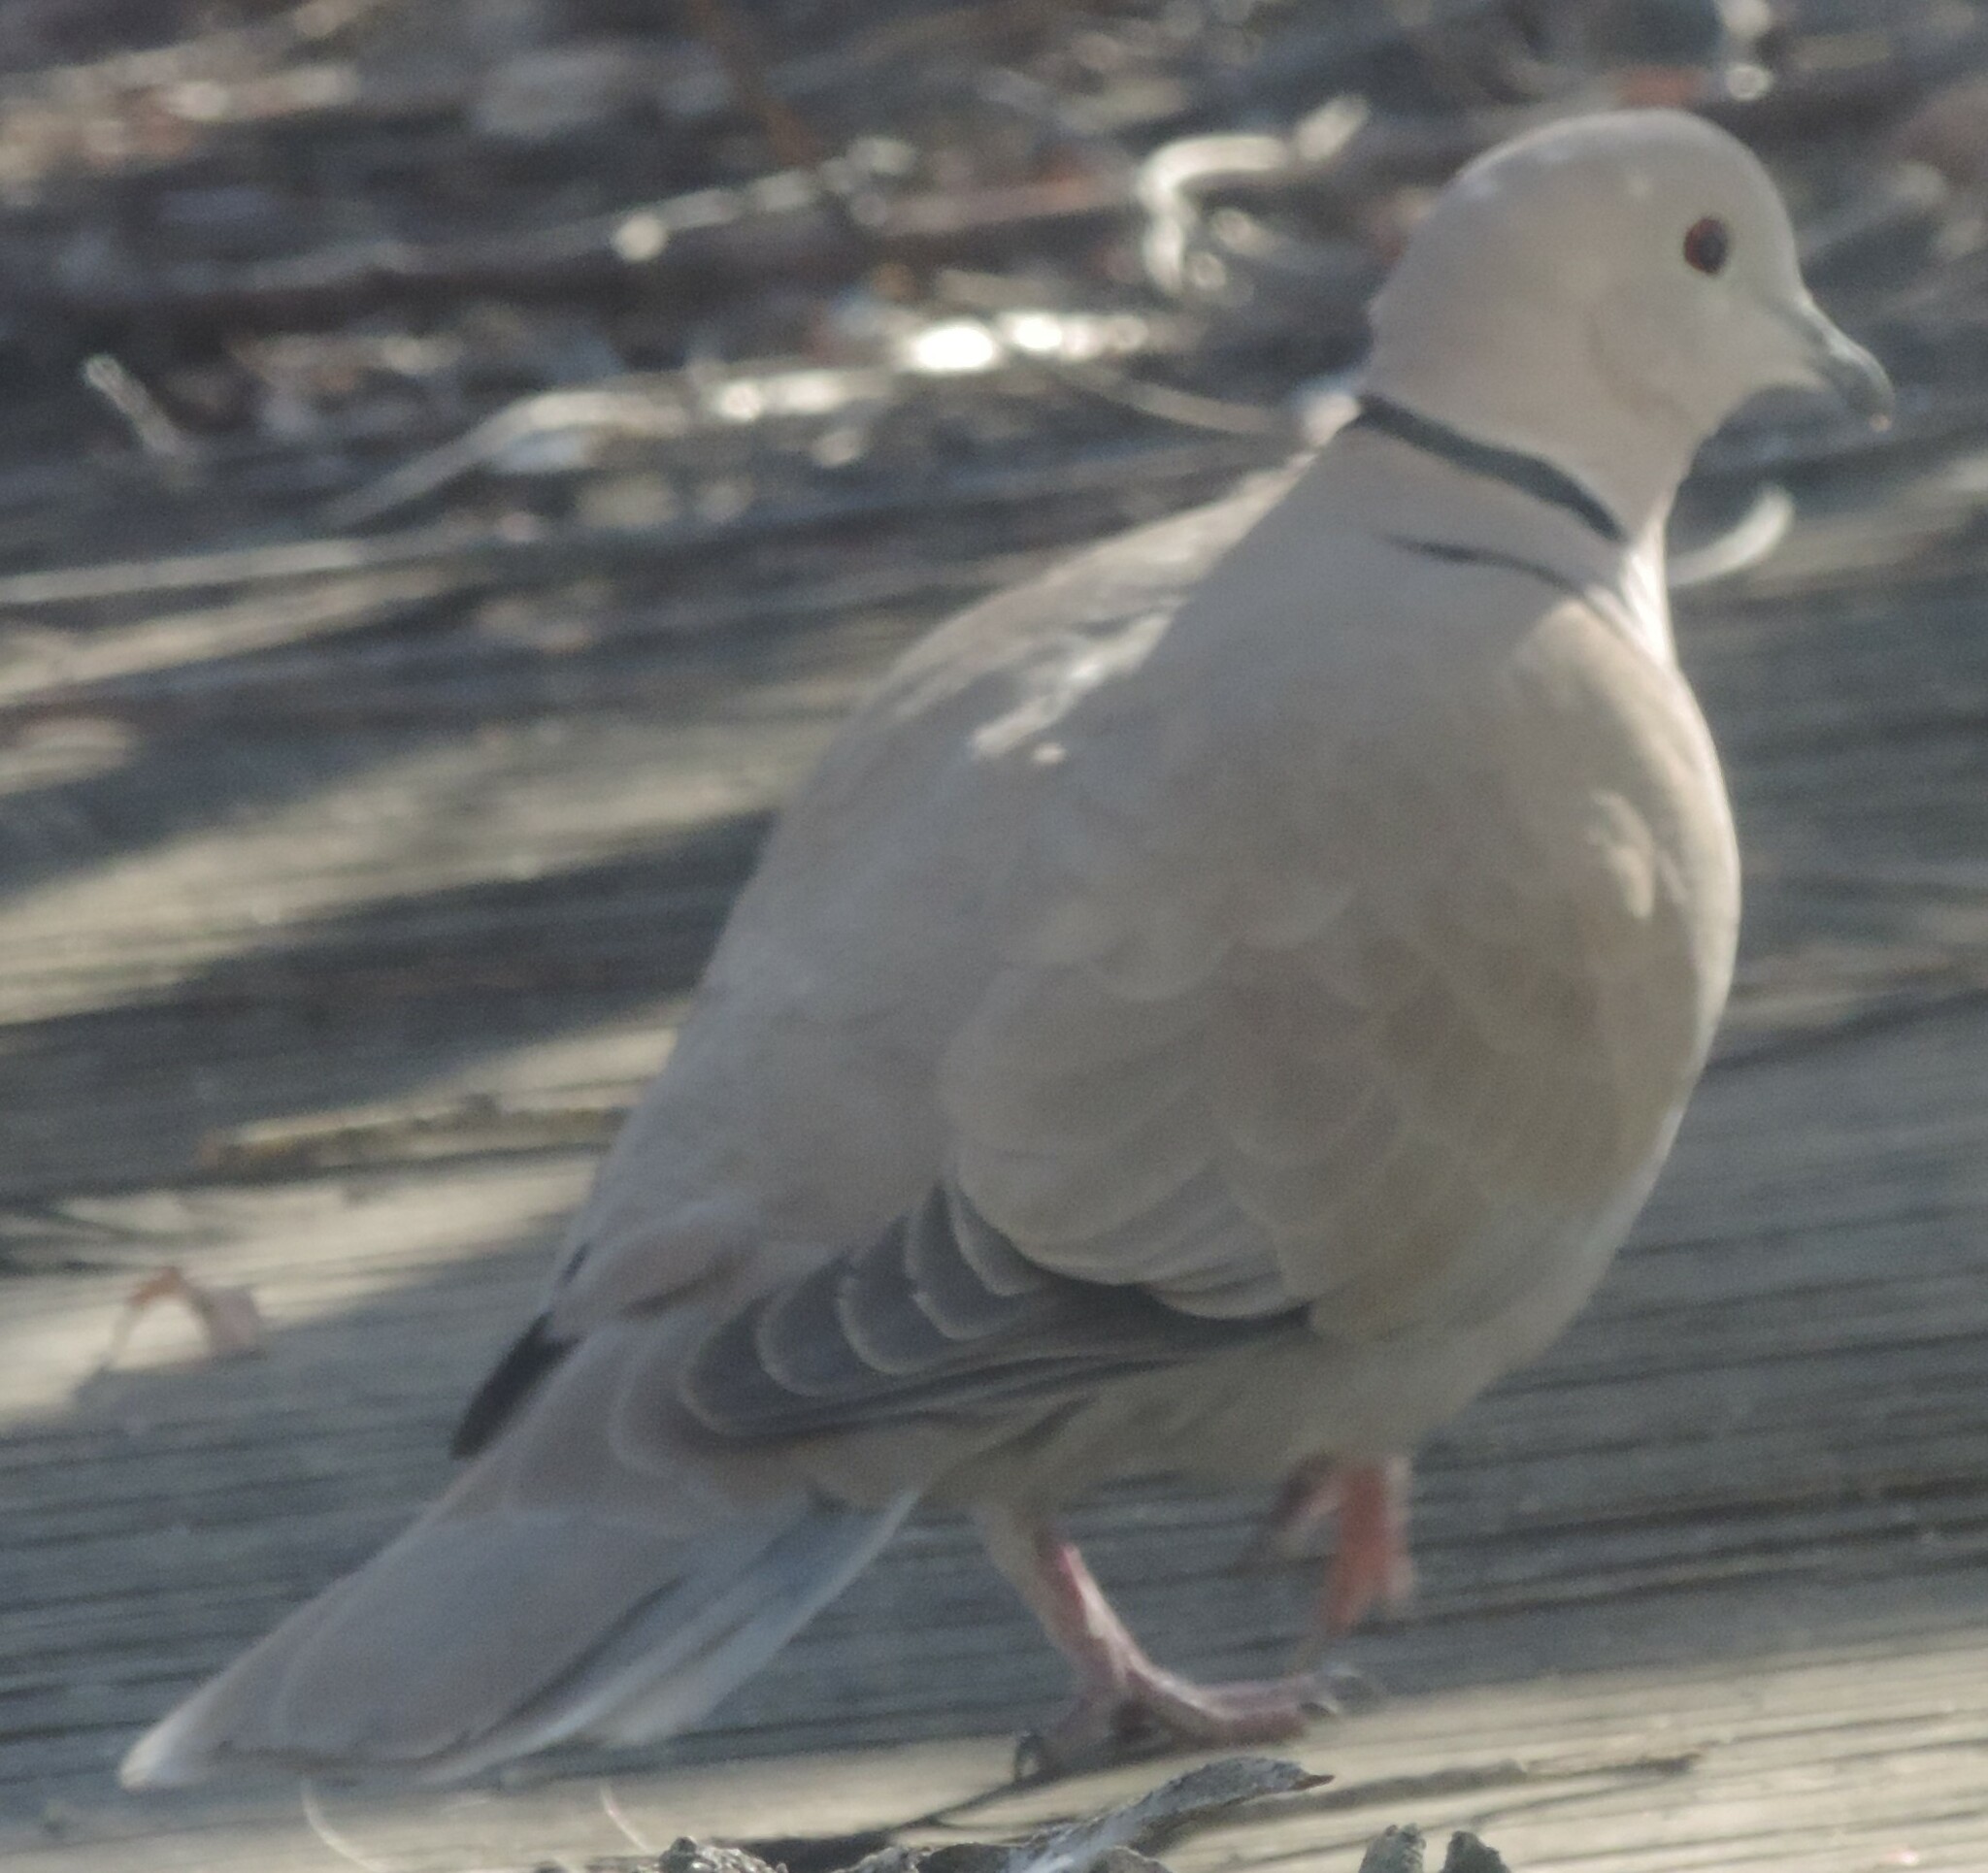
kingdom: Animalia
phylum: Chordata
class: Aves
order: Columbiformes
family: Columbidae
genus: Streptopelia
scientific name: Streptopelia decaocto
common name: Eurasian collared dove
